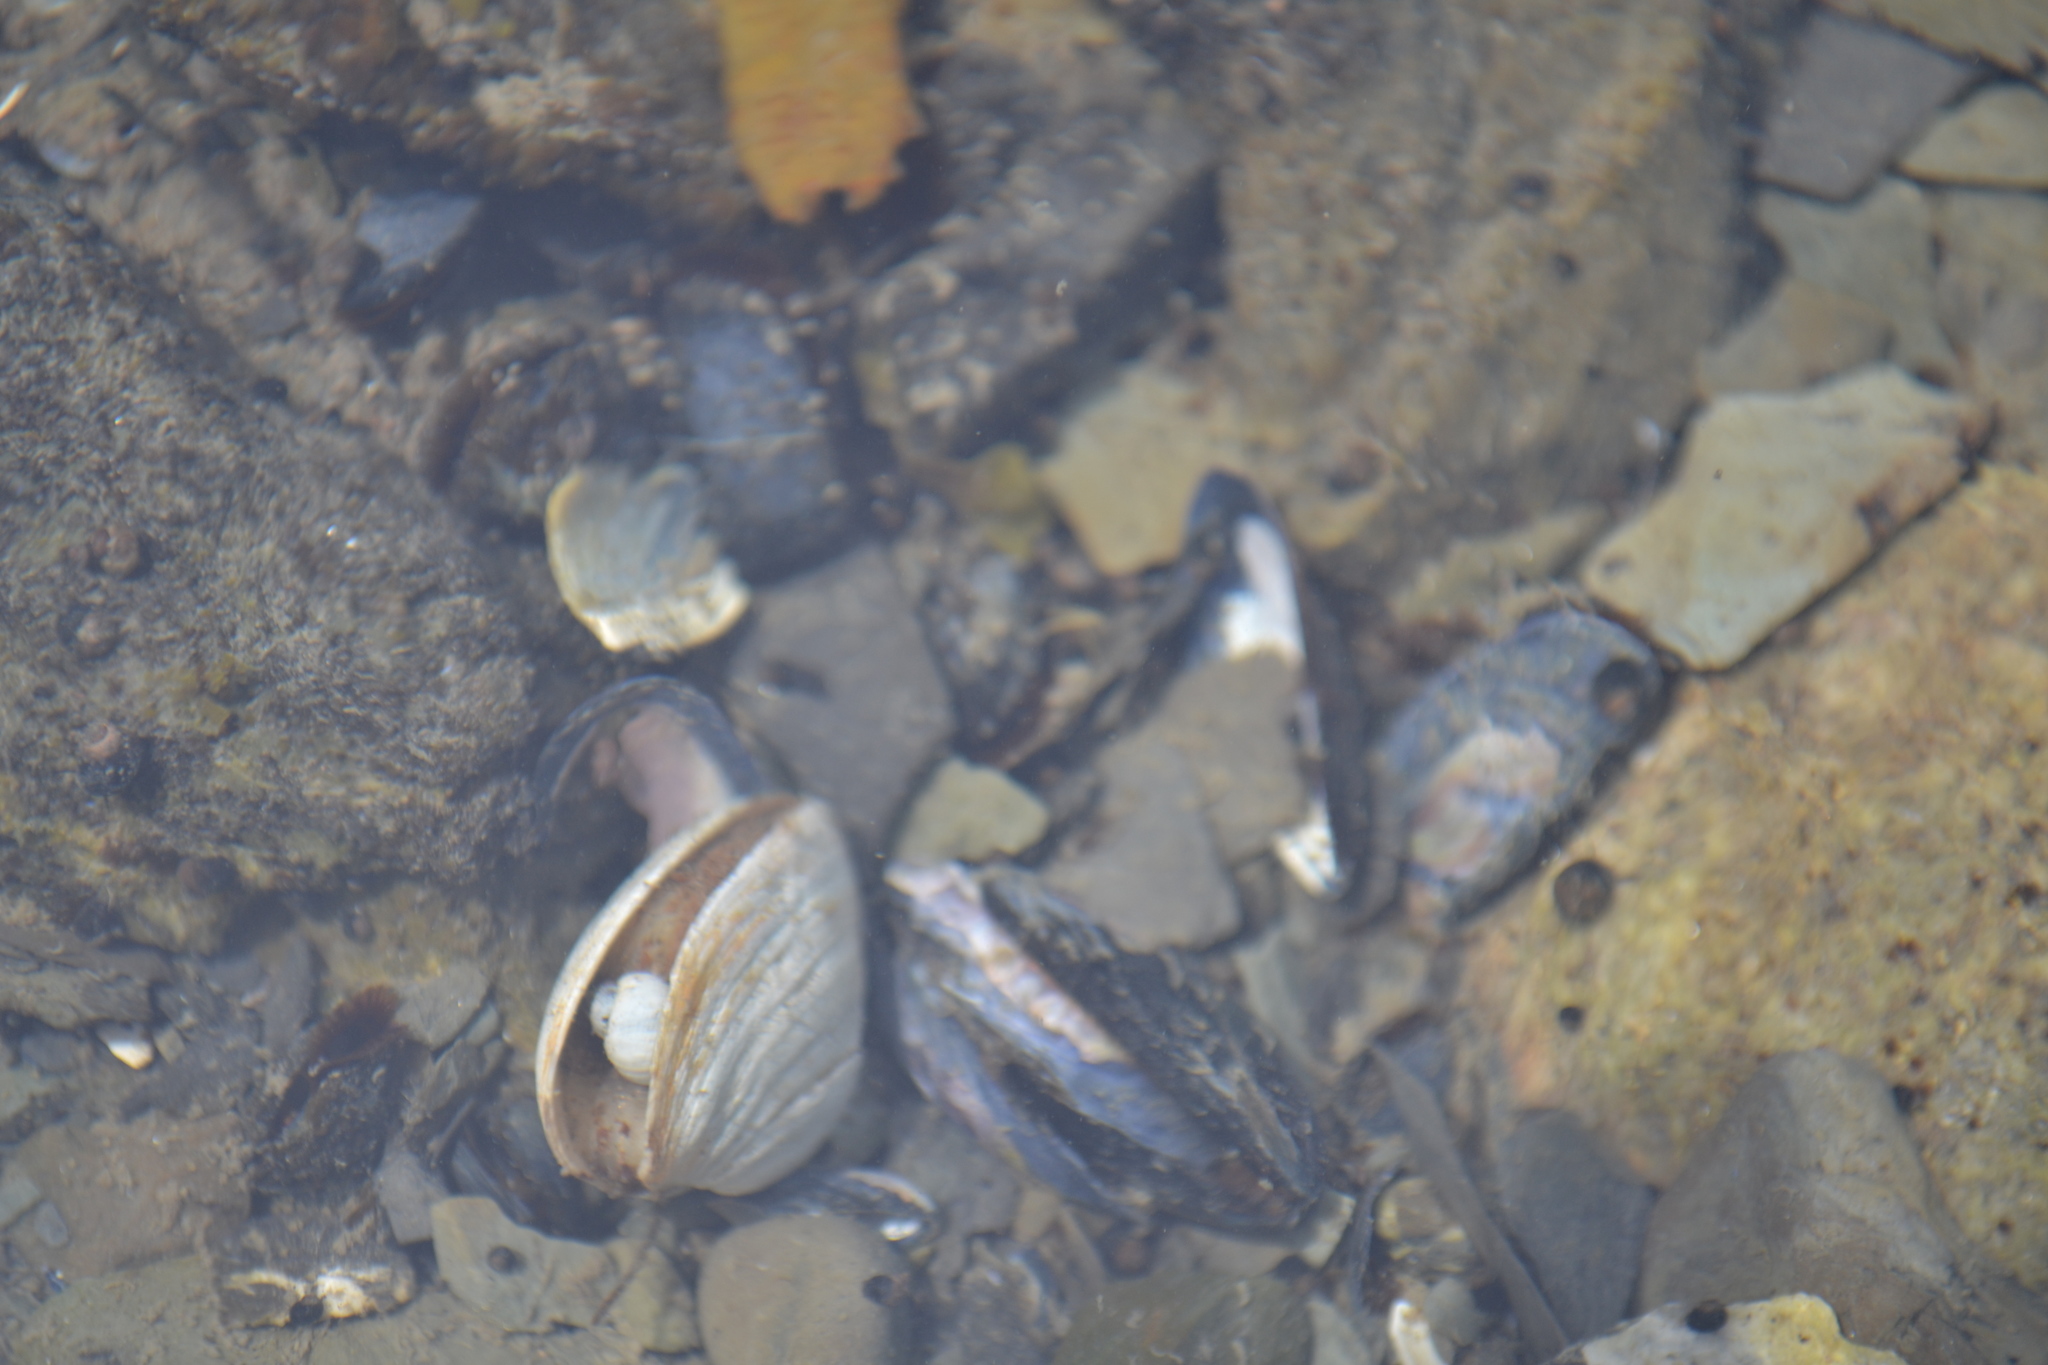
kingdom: Animalia
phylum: Mollusca
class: Bivalvia
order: Myida
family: Myidae
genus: Mya
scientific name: Mya arenaria
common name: Soft-shelled clam
